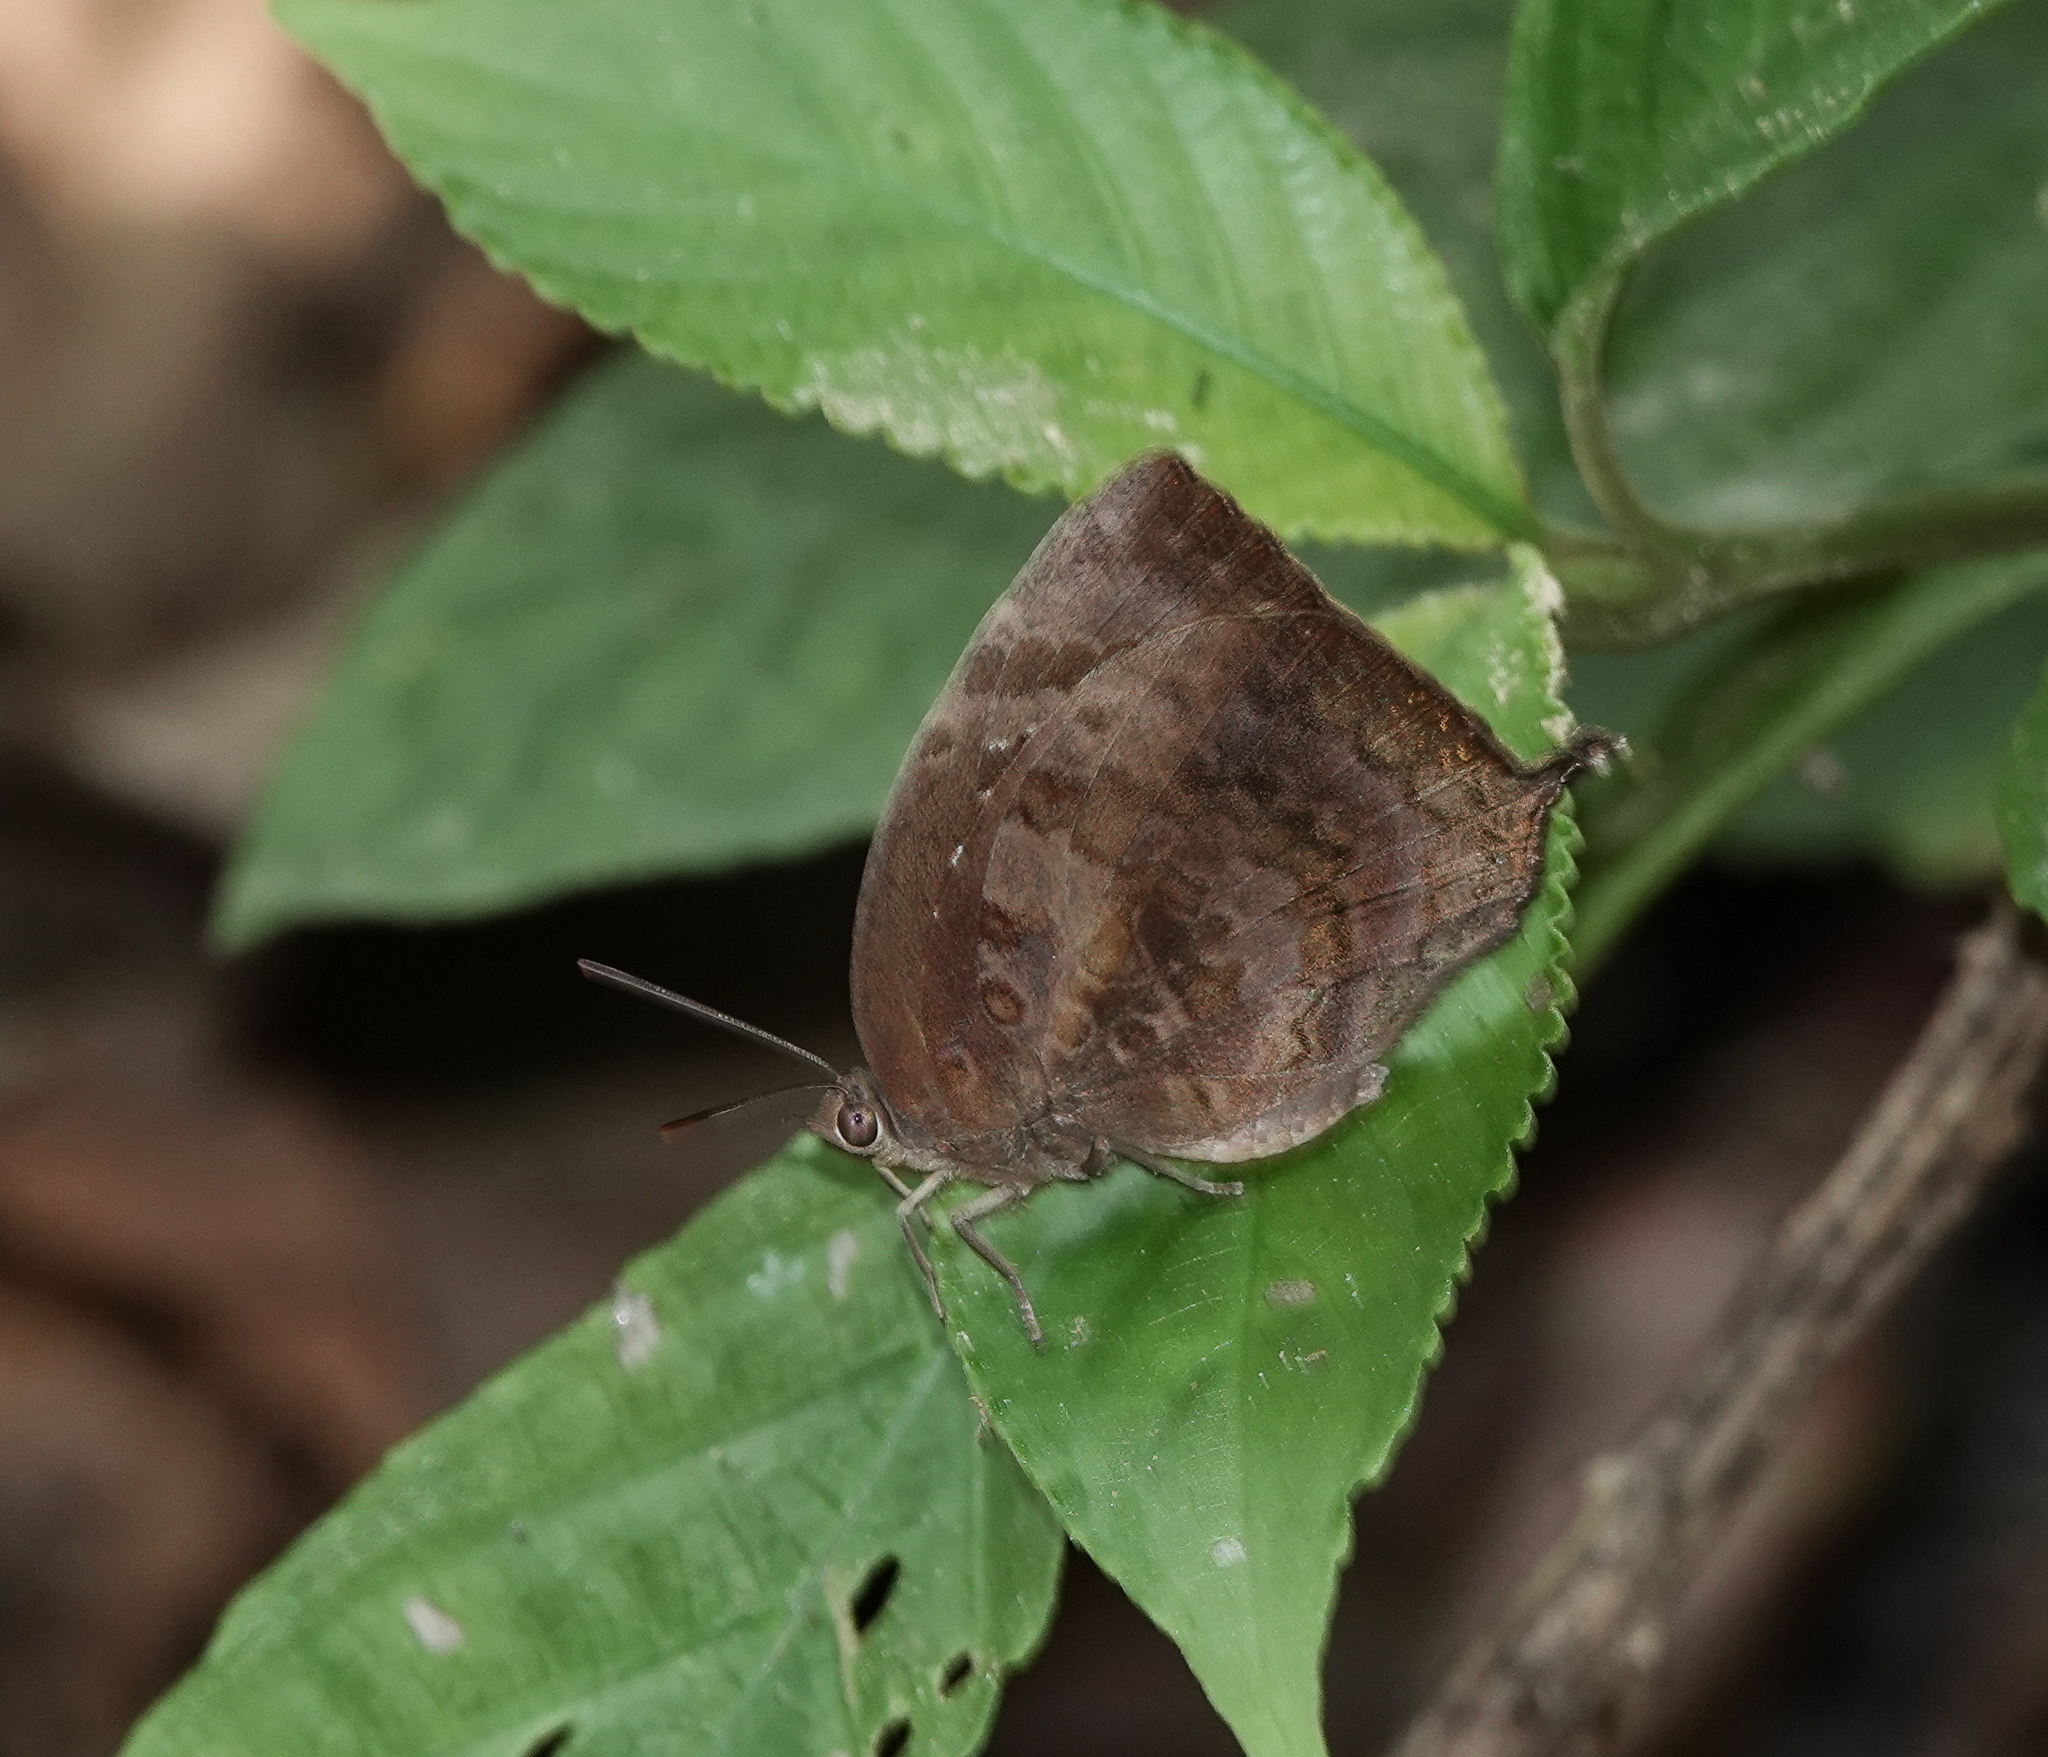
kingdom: Animalia
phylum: Arthropoda
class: Insecta
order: Lepidoptera
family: Lycaenidae
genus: Arhopala
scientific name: Arhopala centaurus
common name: Dull oak-blue
